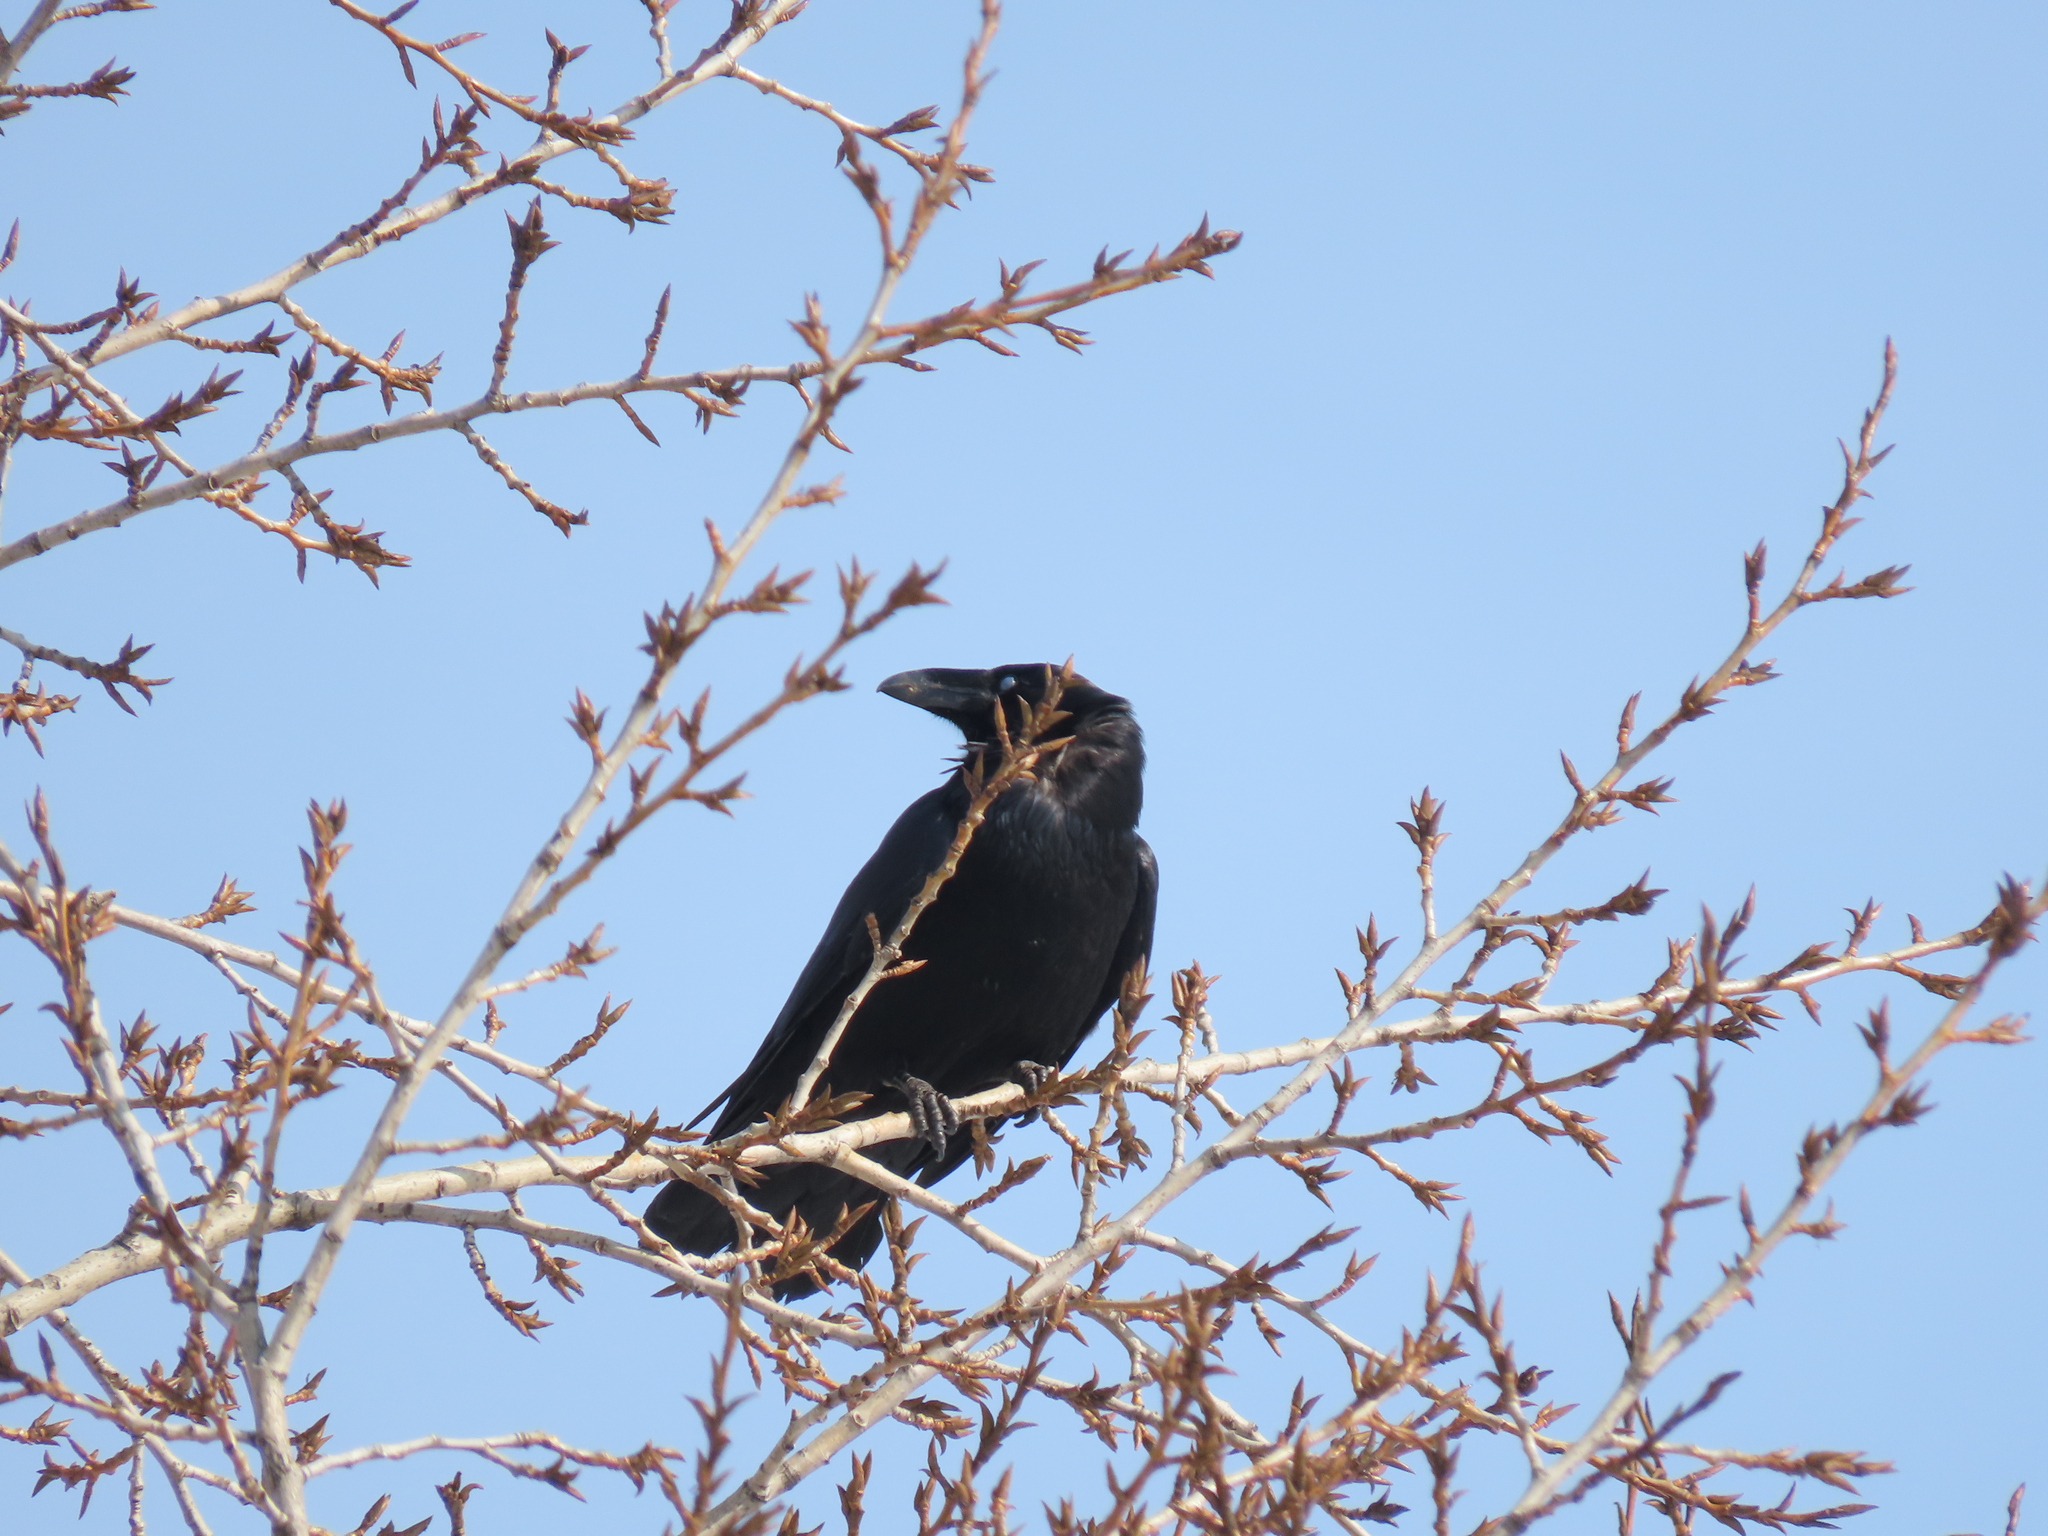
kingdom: Animalia
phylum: Chordata
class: Aves
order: Passeriformes
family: Corvidae
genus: Corvus
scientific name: Corvus corax
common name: Common raven
